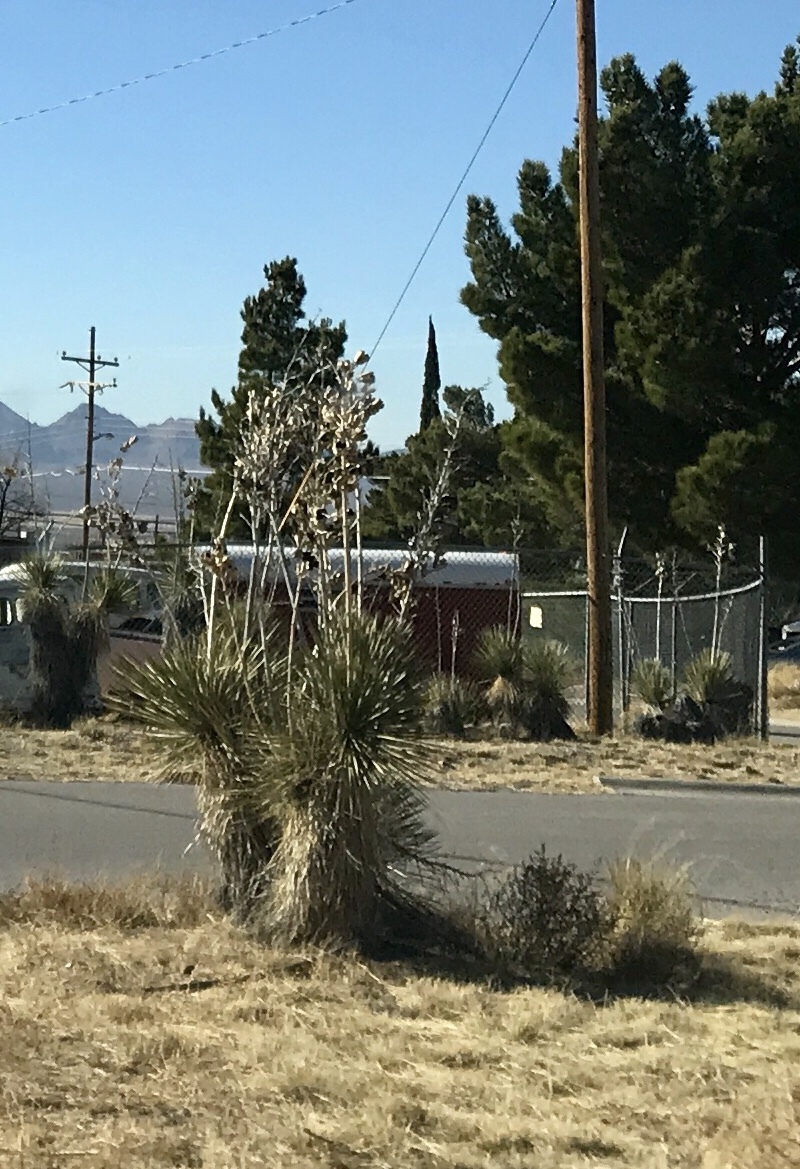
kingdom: Plantae
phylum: Tracheophyta
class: Liliopsida
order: Asparagales
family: Asparagaceae
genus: Yucca
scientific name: Yucca elata
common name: Palmella
